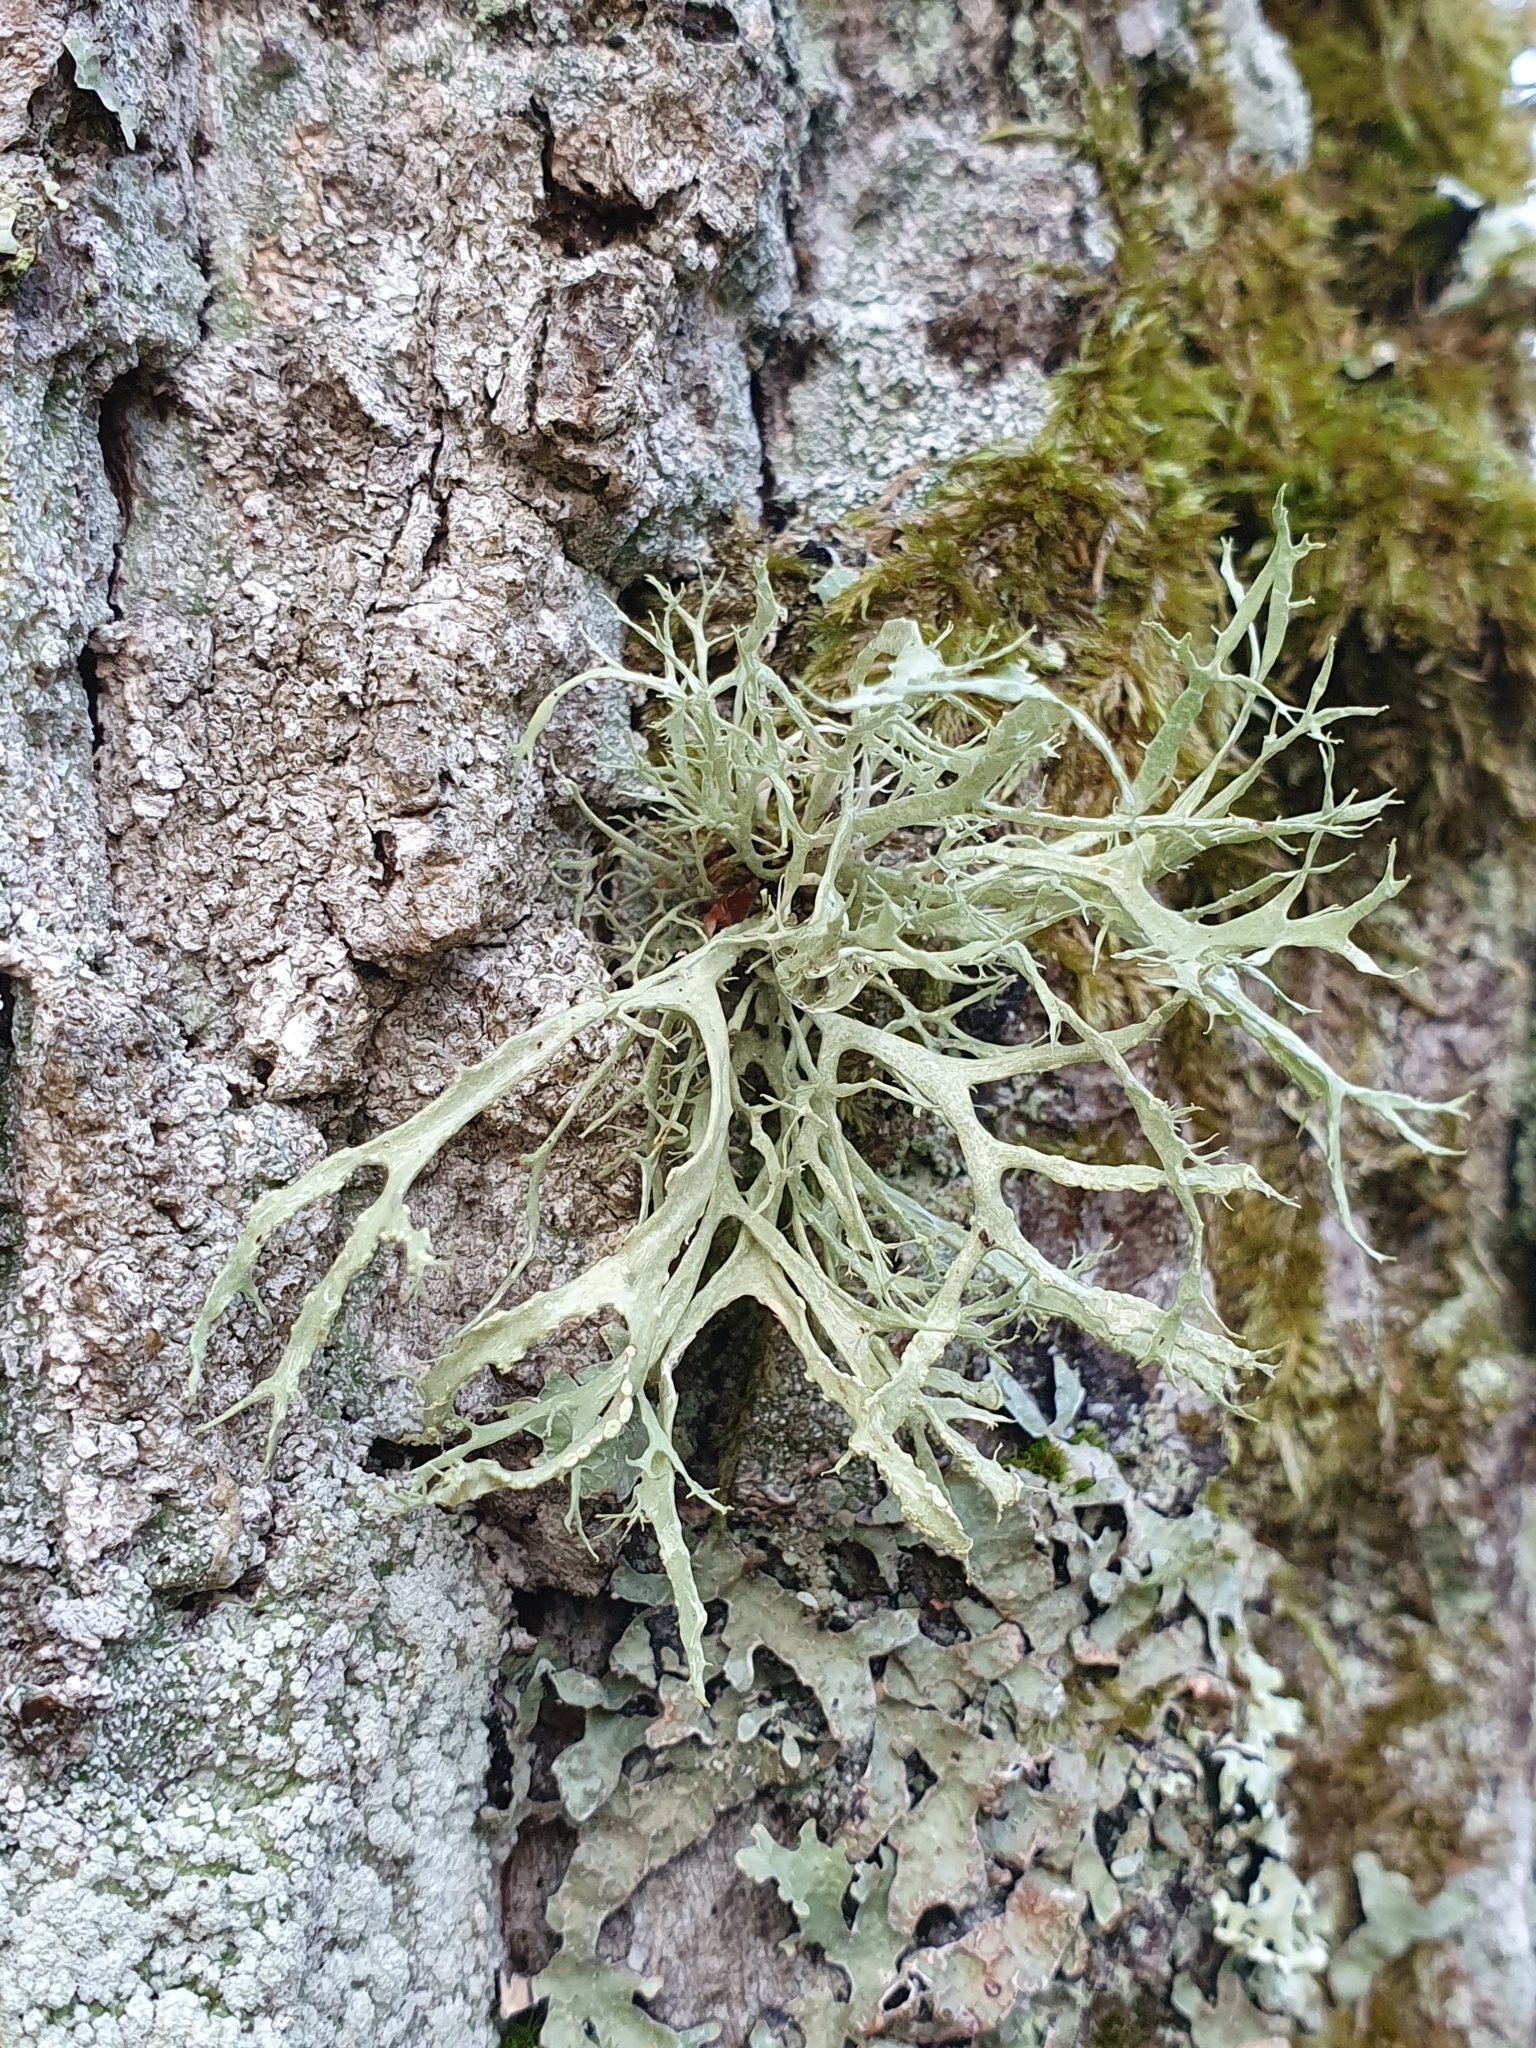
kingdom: Fungi
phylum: Ascomycota
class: Lecanoromycetes
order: Lecanorales
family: Ramalinaceae
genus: Ramalina
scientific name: Ramalina farinacea
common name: Farinose cartilage lichen
